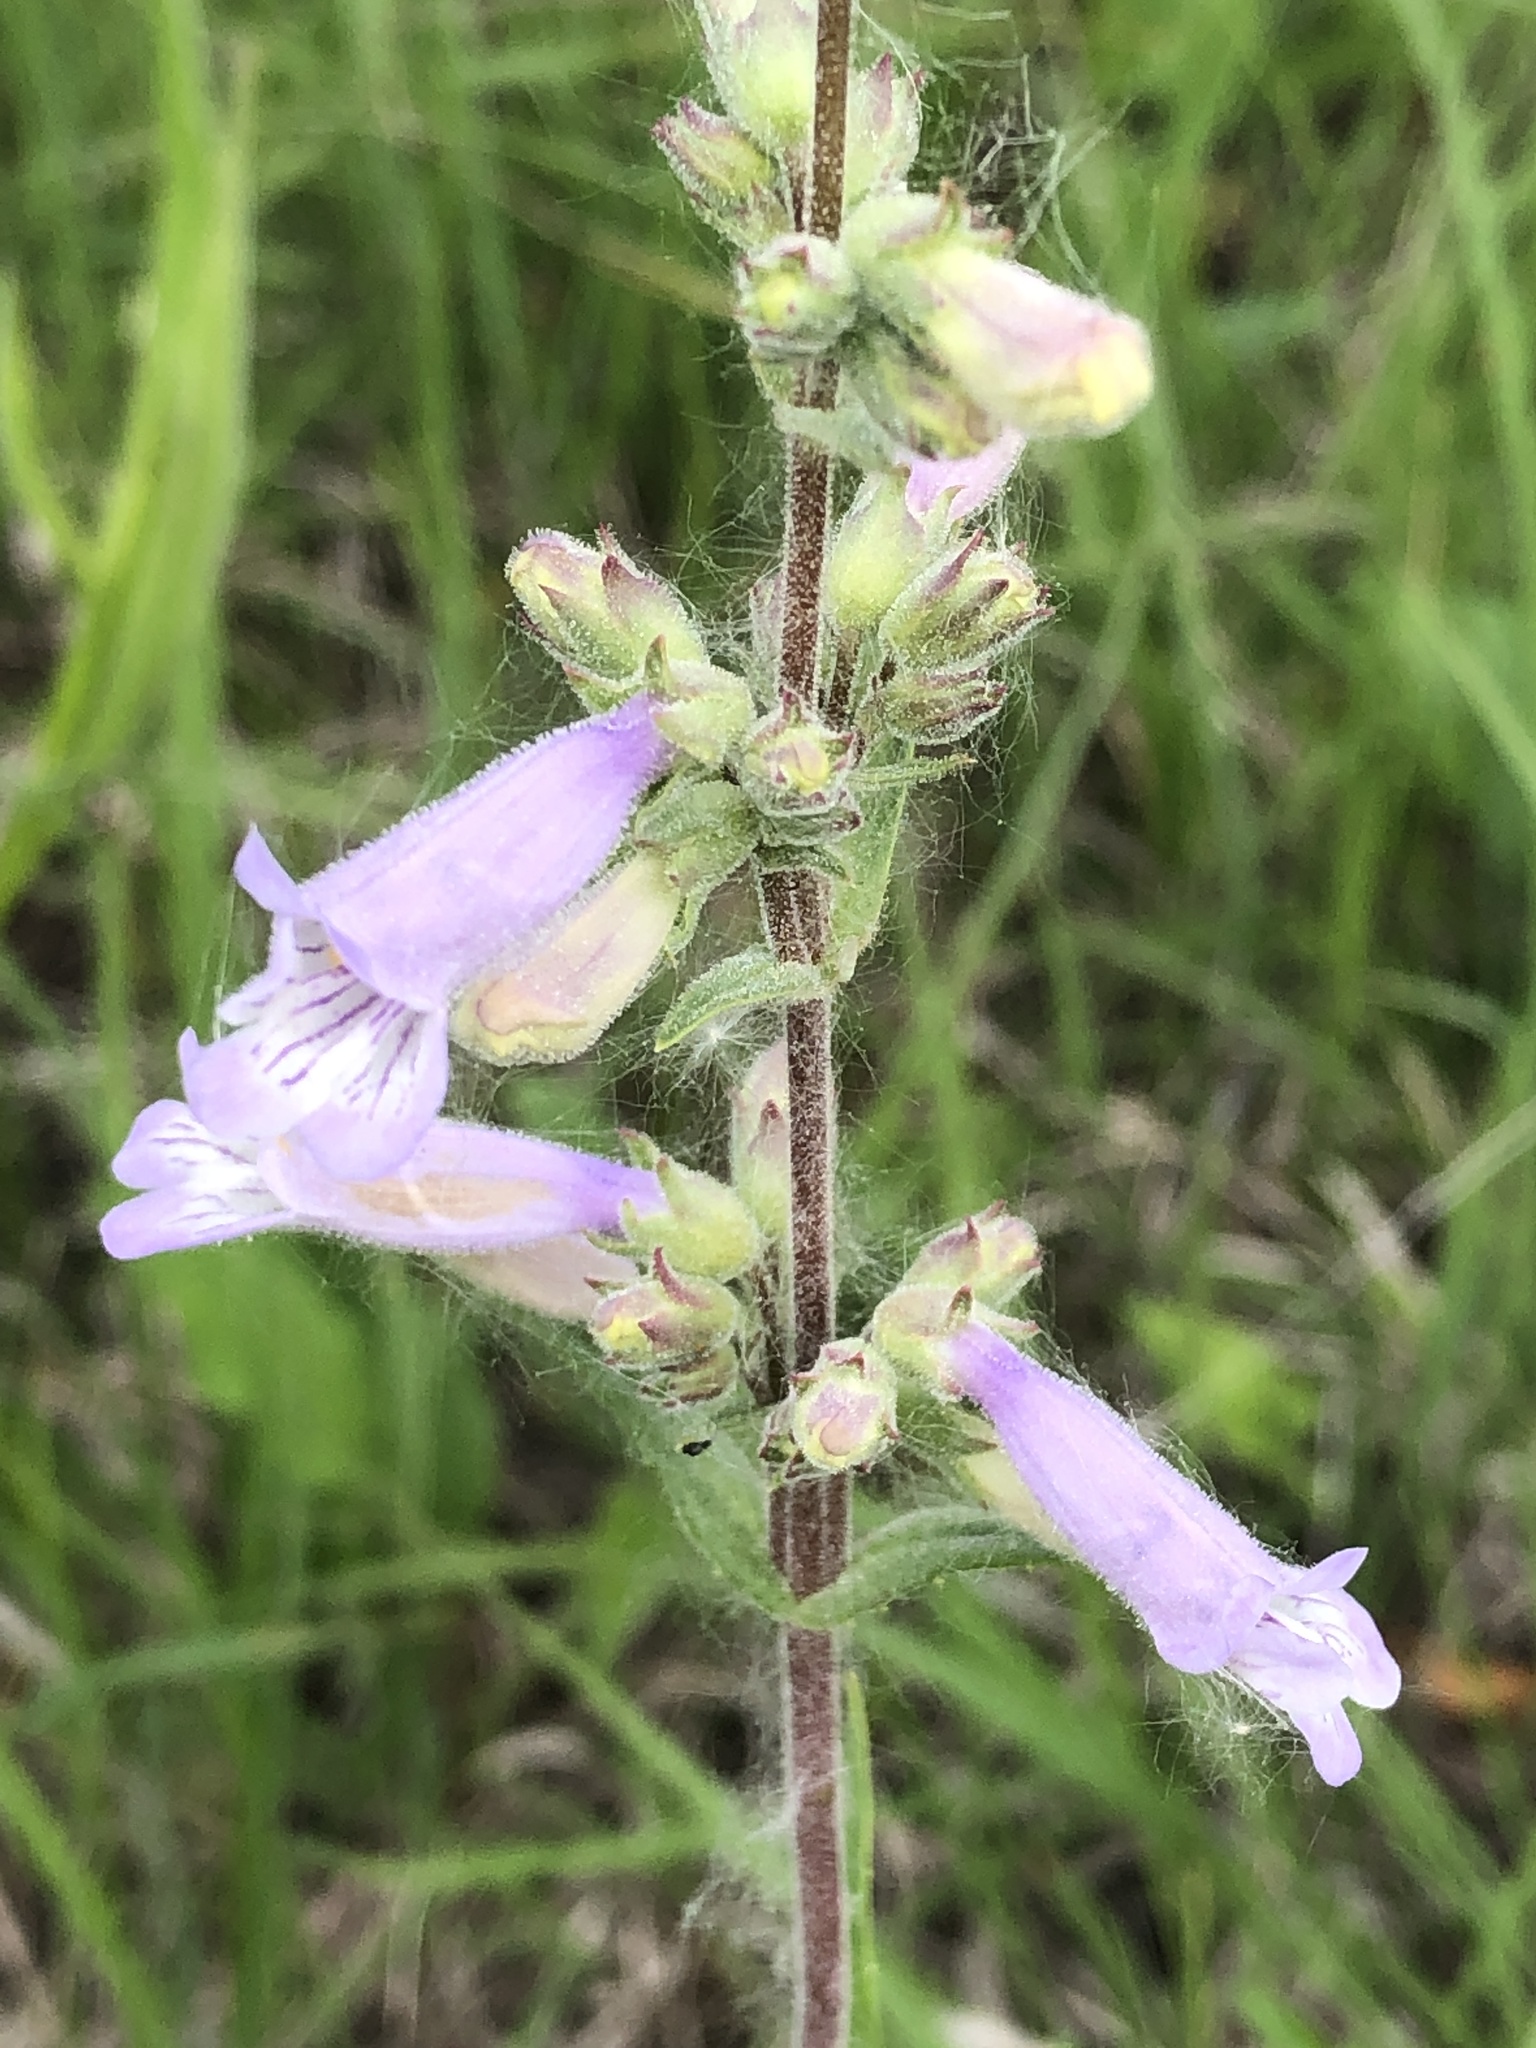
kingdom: Plantae
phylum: Tracheophyta
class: Magnoliopsida
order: Lamiales
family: Plantaginaceae
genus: Penstemon
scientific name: Penstemon gracilis
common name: Slender beardtongue
